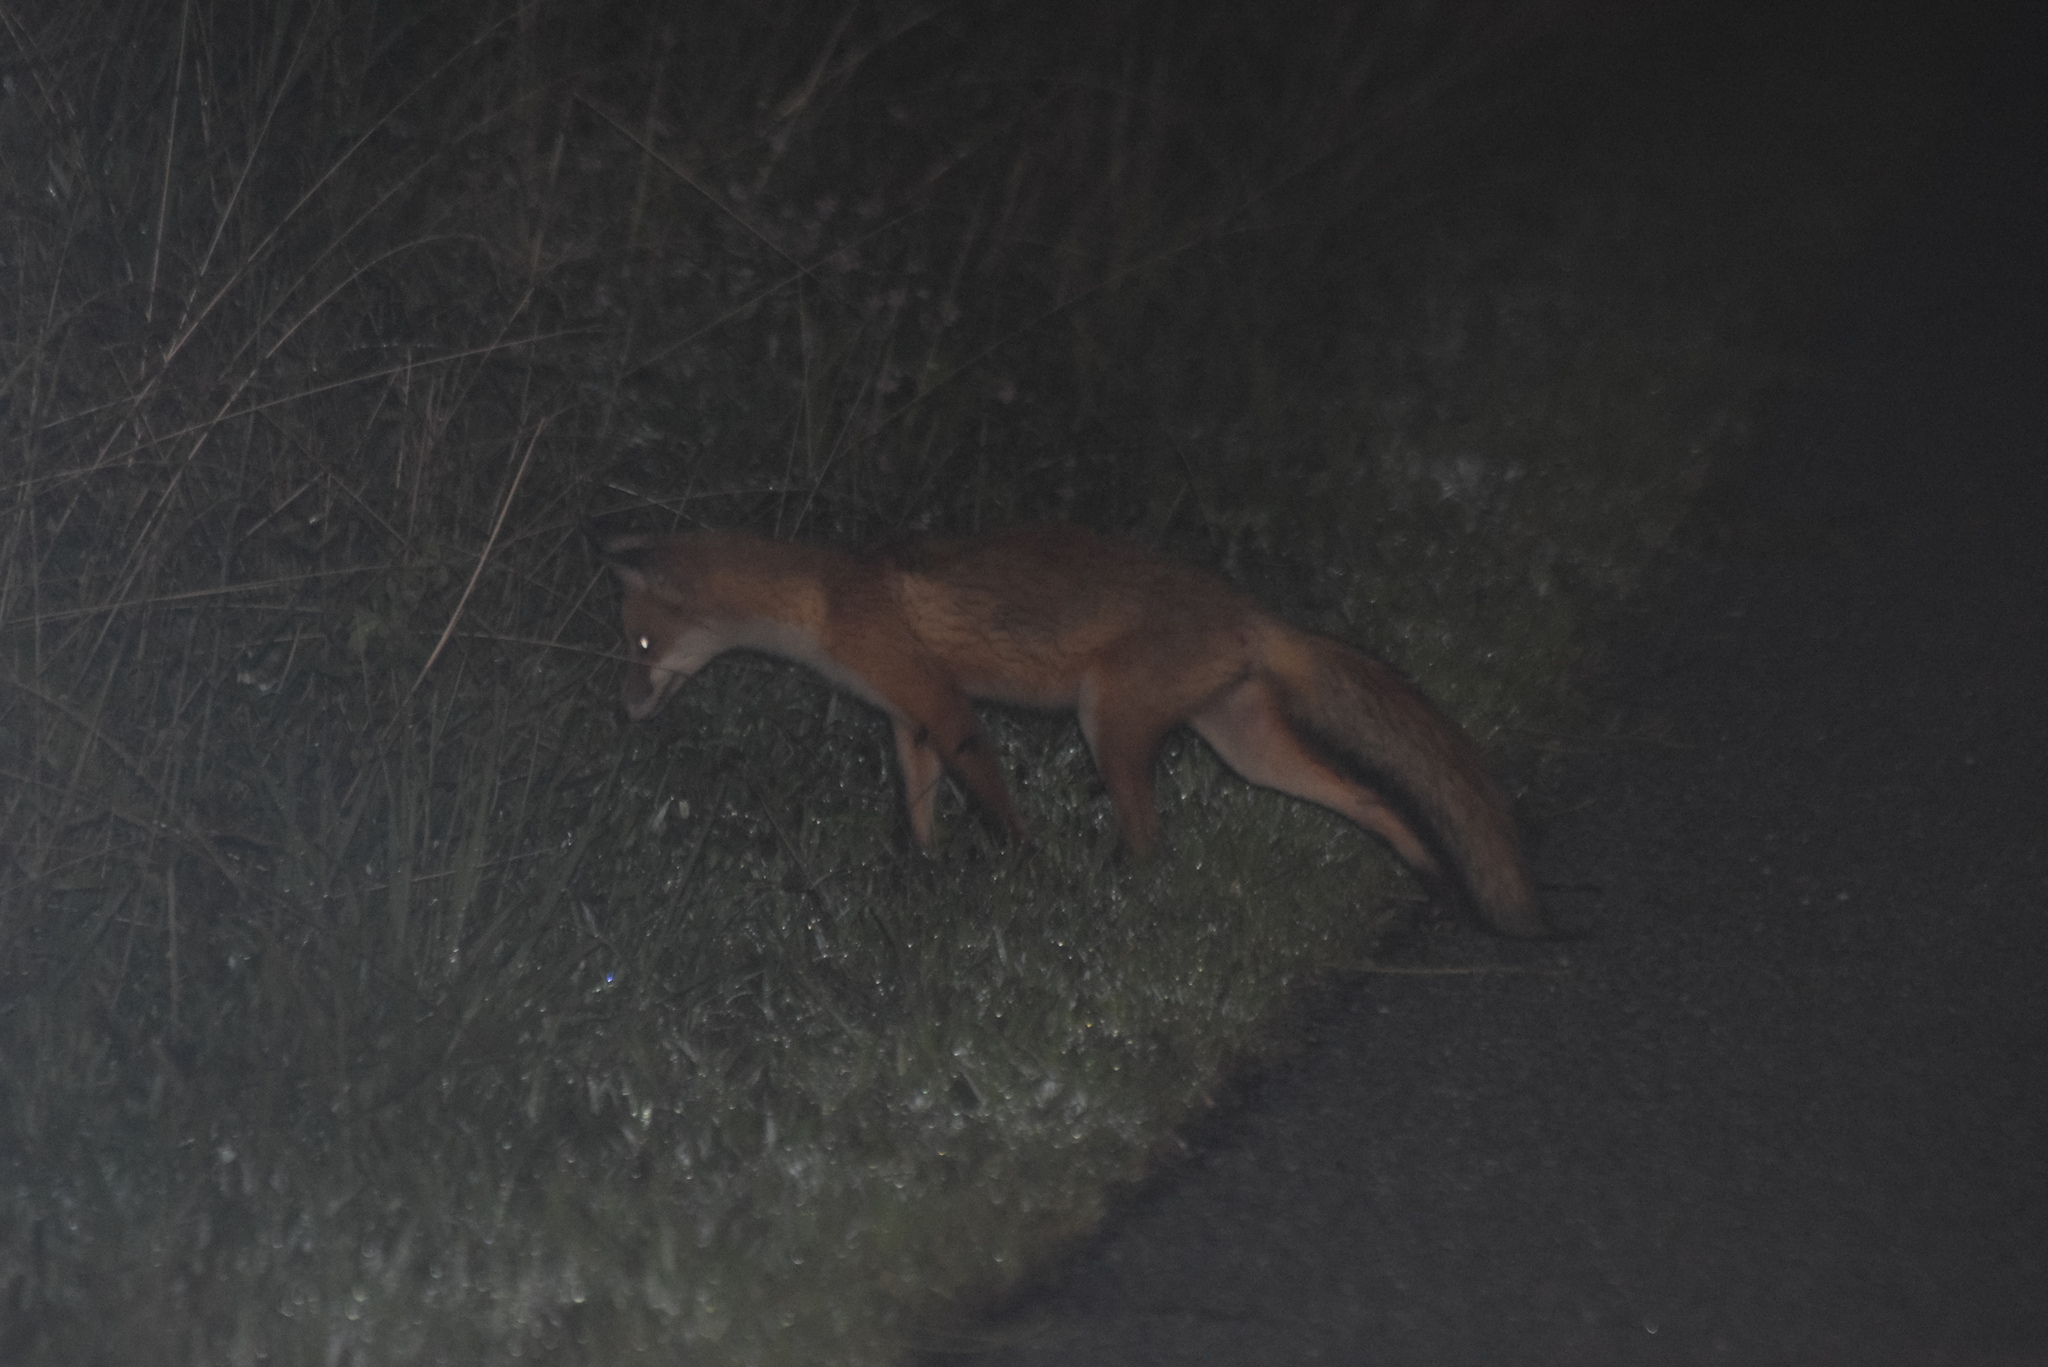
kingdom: Animalia
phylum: Chordata
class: Mammalia
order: Carnivora
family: Canidae
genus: Vulpes
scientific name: Vulpes vulpes
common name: Red fox
